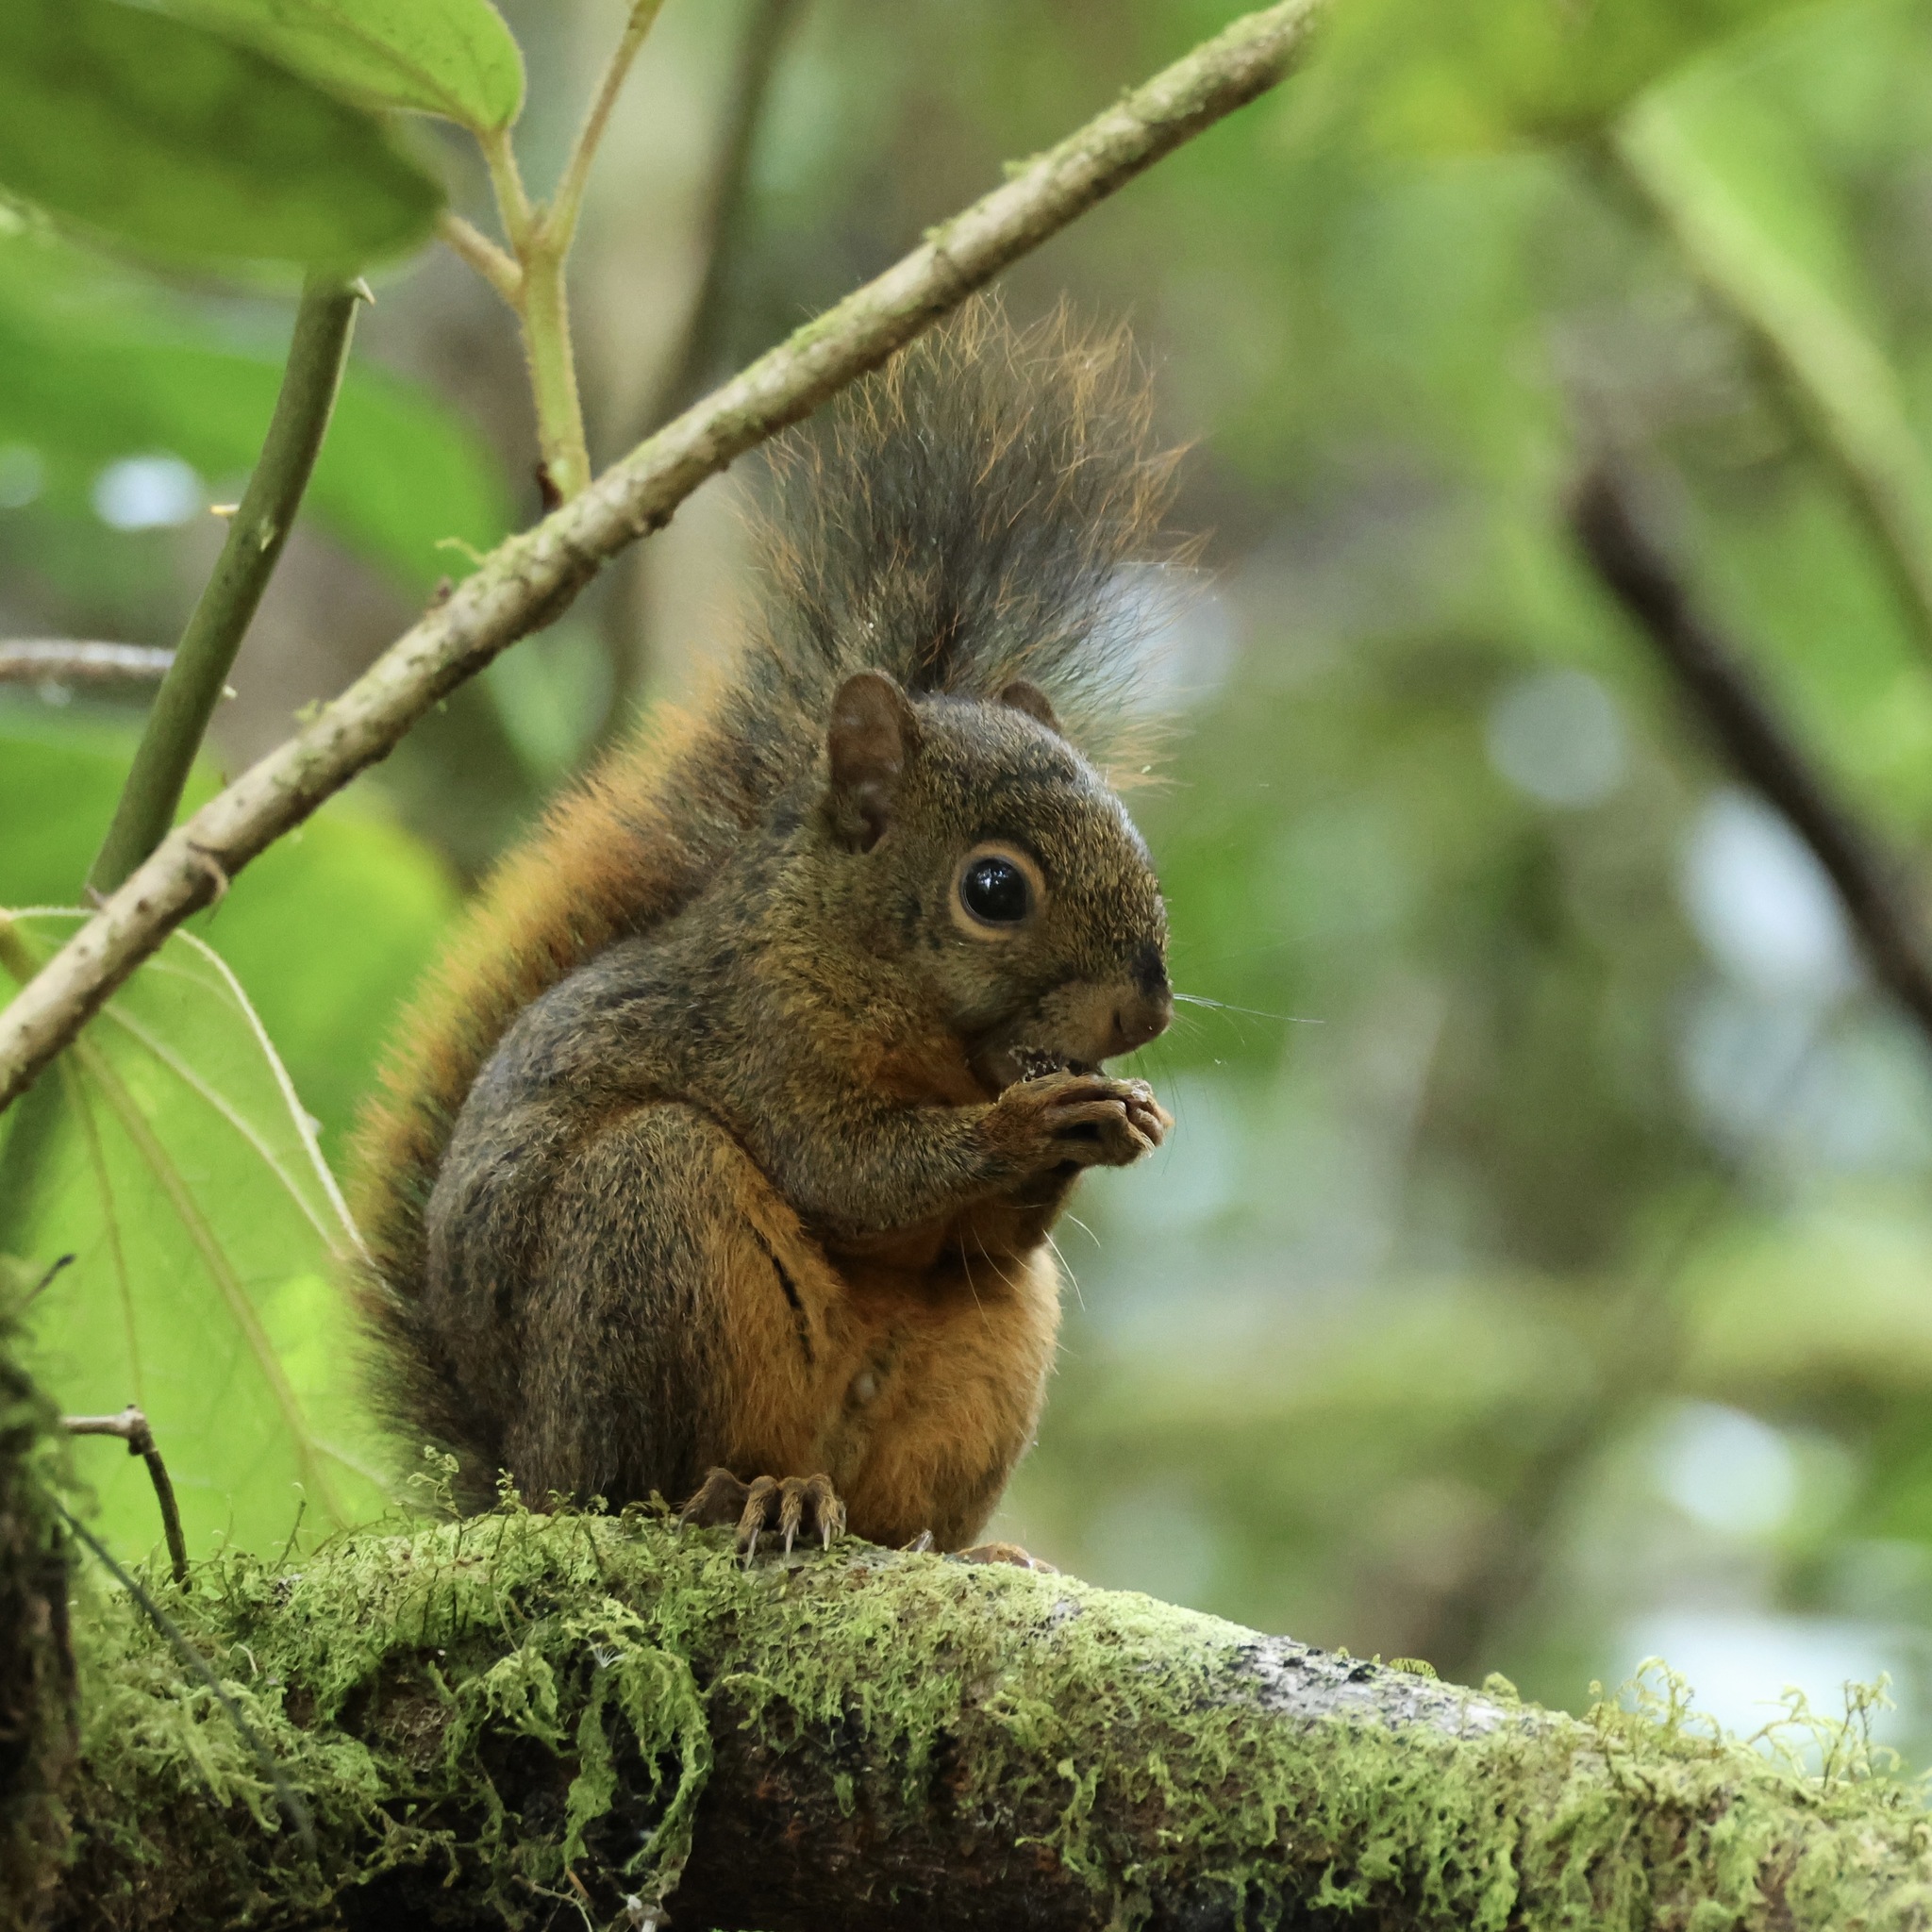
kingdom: Animalia
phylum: Chordata
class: Mammalia
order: Rodentia
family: Sciuridae
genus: Sciurus
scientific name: Sciurus granatensis
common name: Red-tailed squirrel
